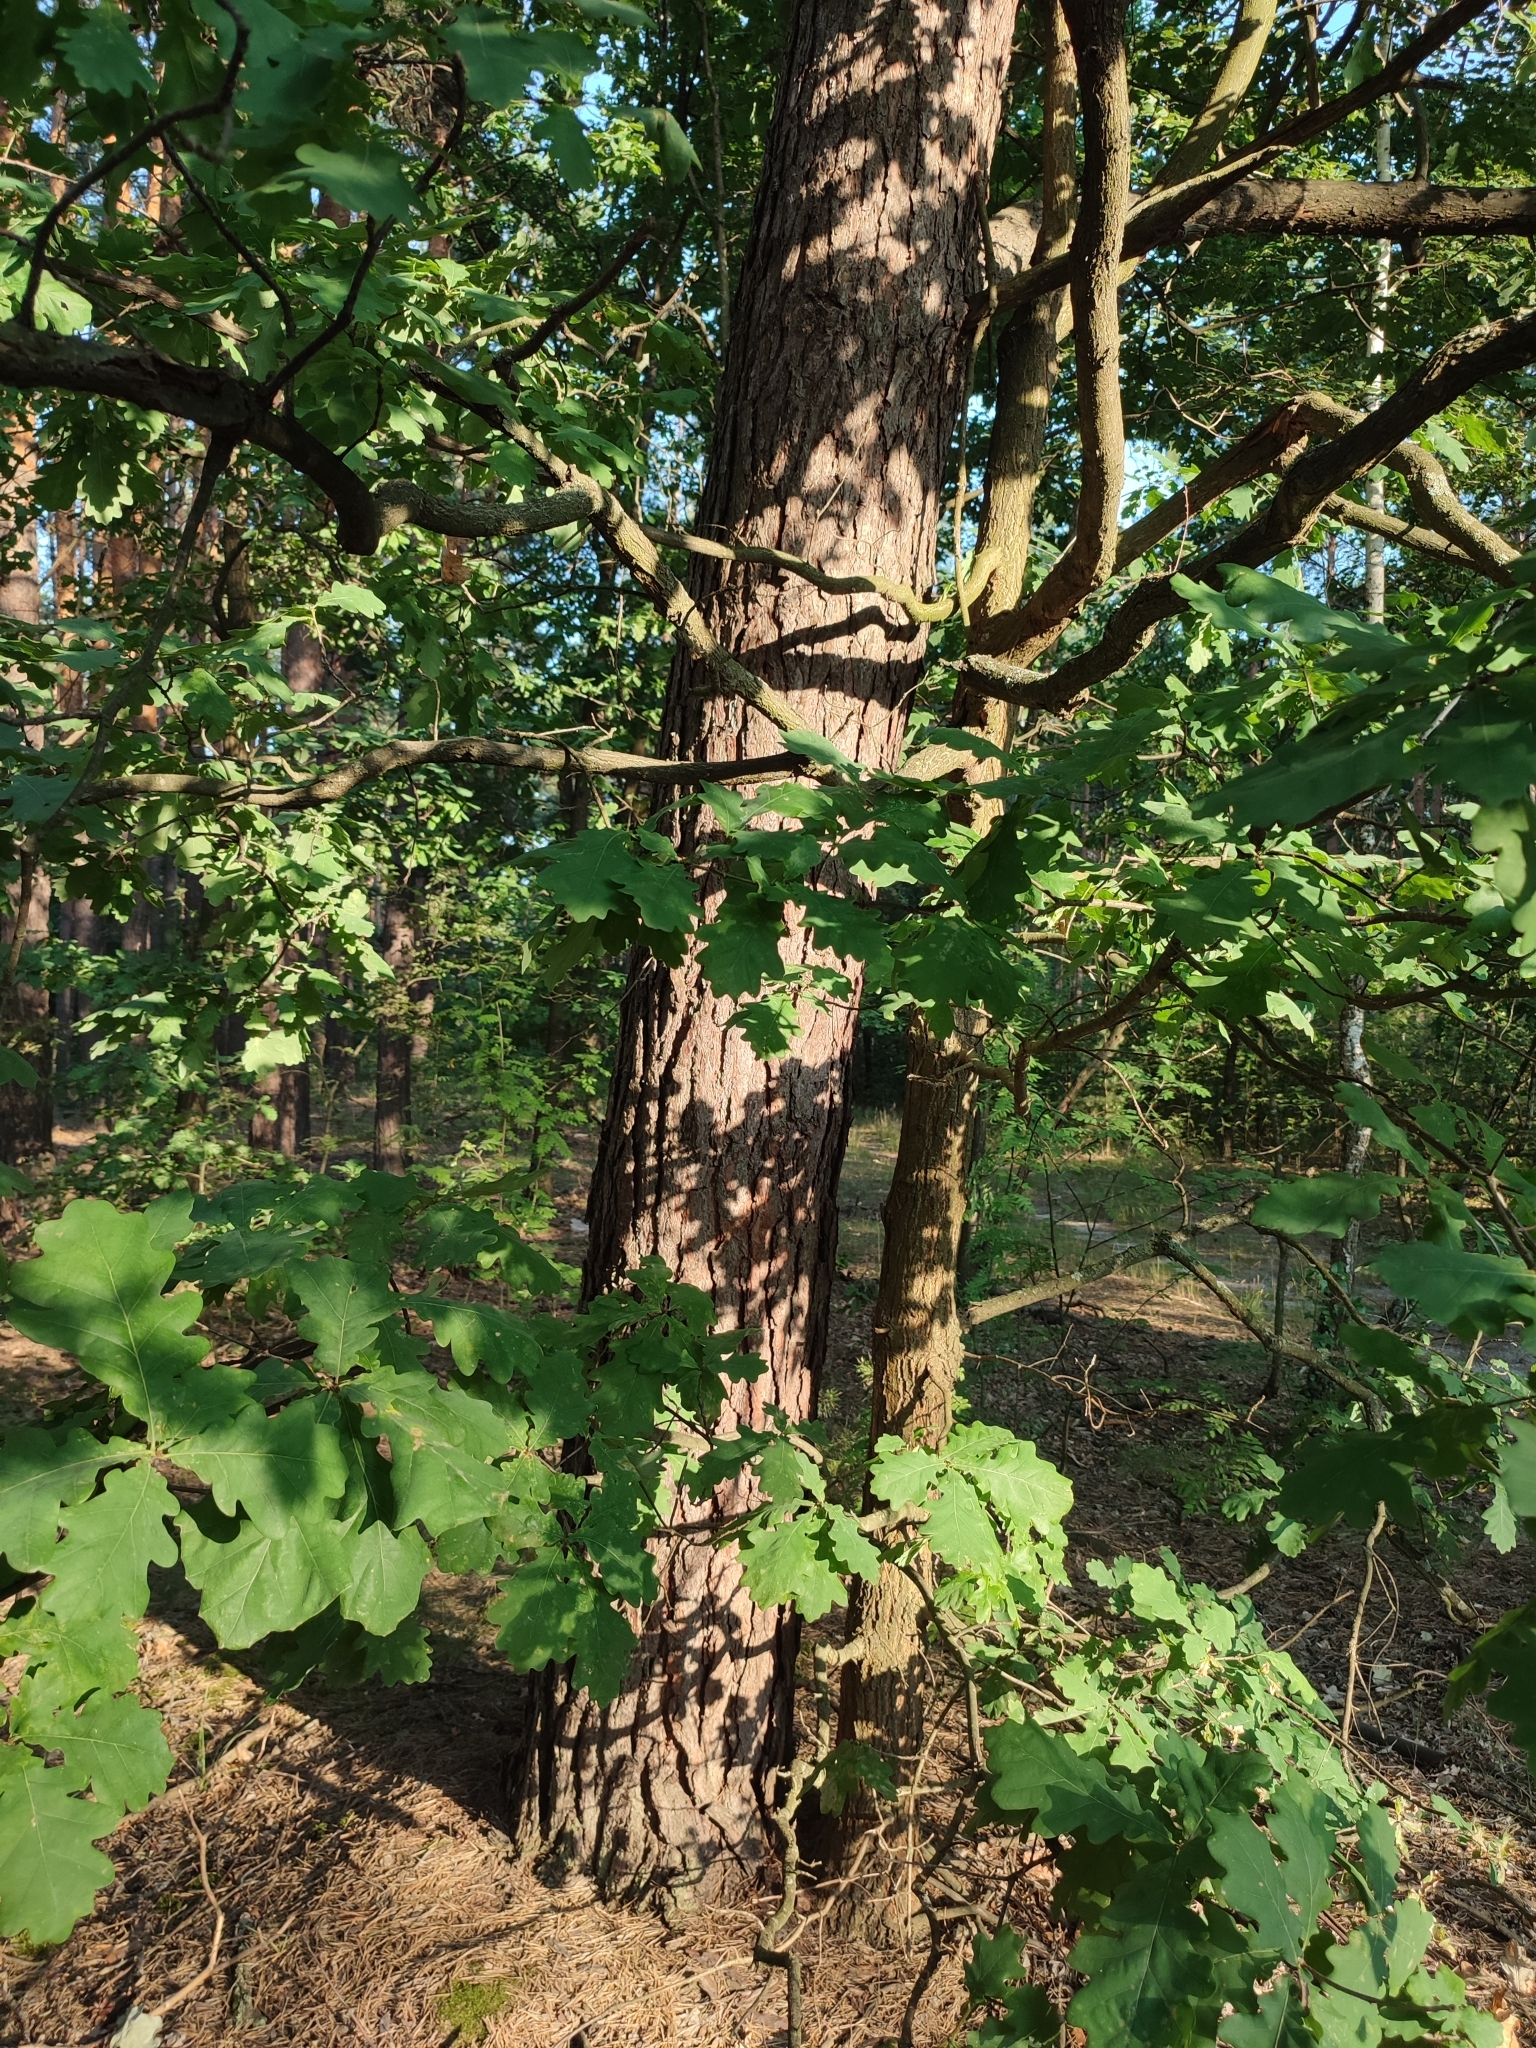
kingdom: Plantae
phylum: Tracheophyta
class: Magnoliopsida
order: Fagales
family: Fagaceae
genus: Quercus
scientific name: Quercus robur
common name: Pedunculate oak
